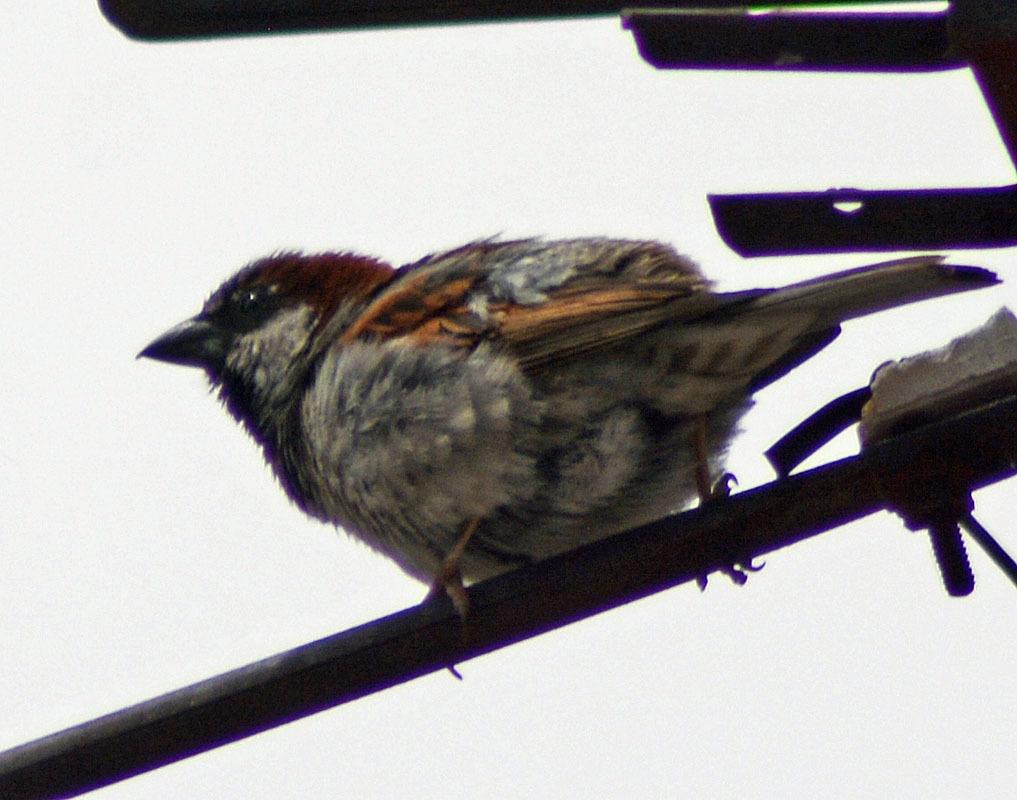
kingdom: Animalia
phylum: Chordata
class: Aves
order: Passeriformes
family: Passeridae
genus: Passer
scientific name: Passer domesticus
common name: House sparrow
